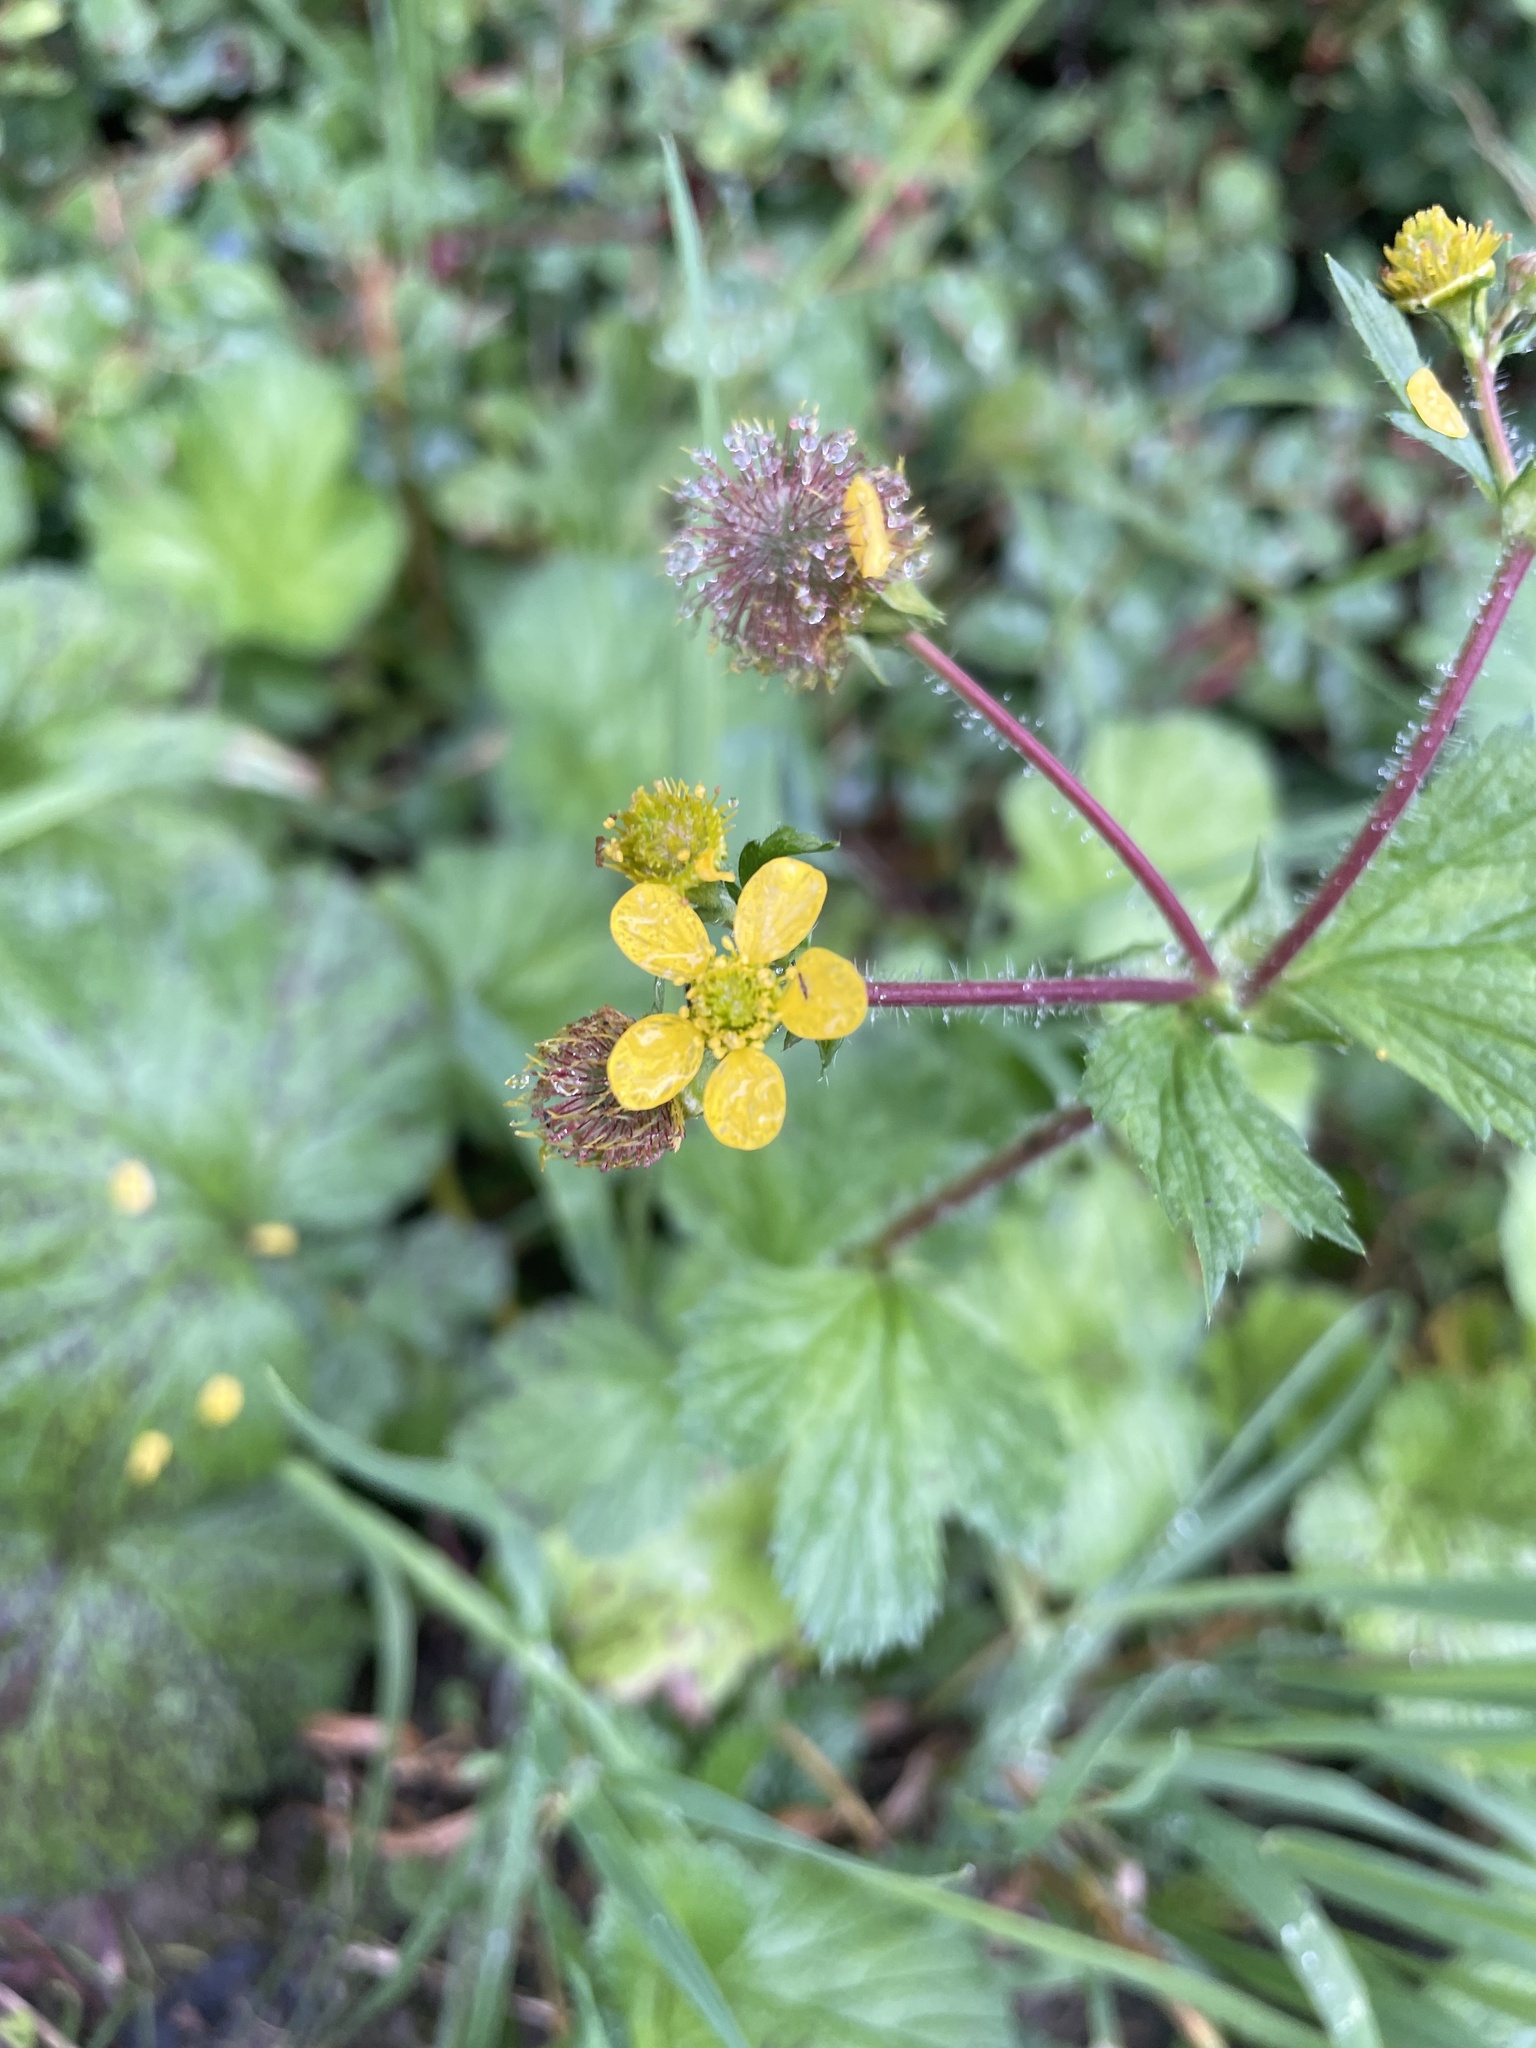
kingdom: Plantae
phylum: Tracheophyta
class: Magnoliopsida
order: Rosales
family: Rosaceae
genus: Geum
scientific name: Geum calthifolium
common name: Caltha-leaved avens
